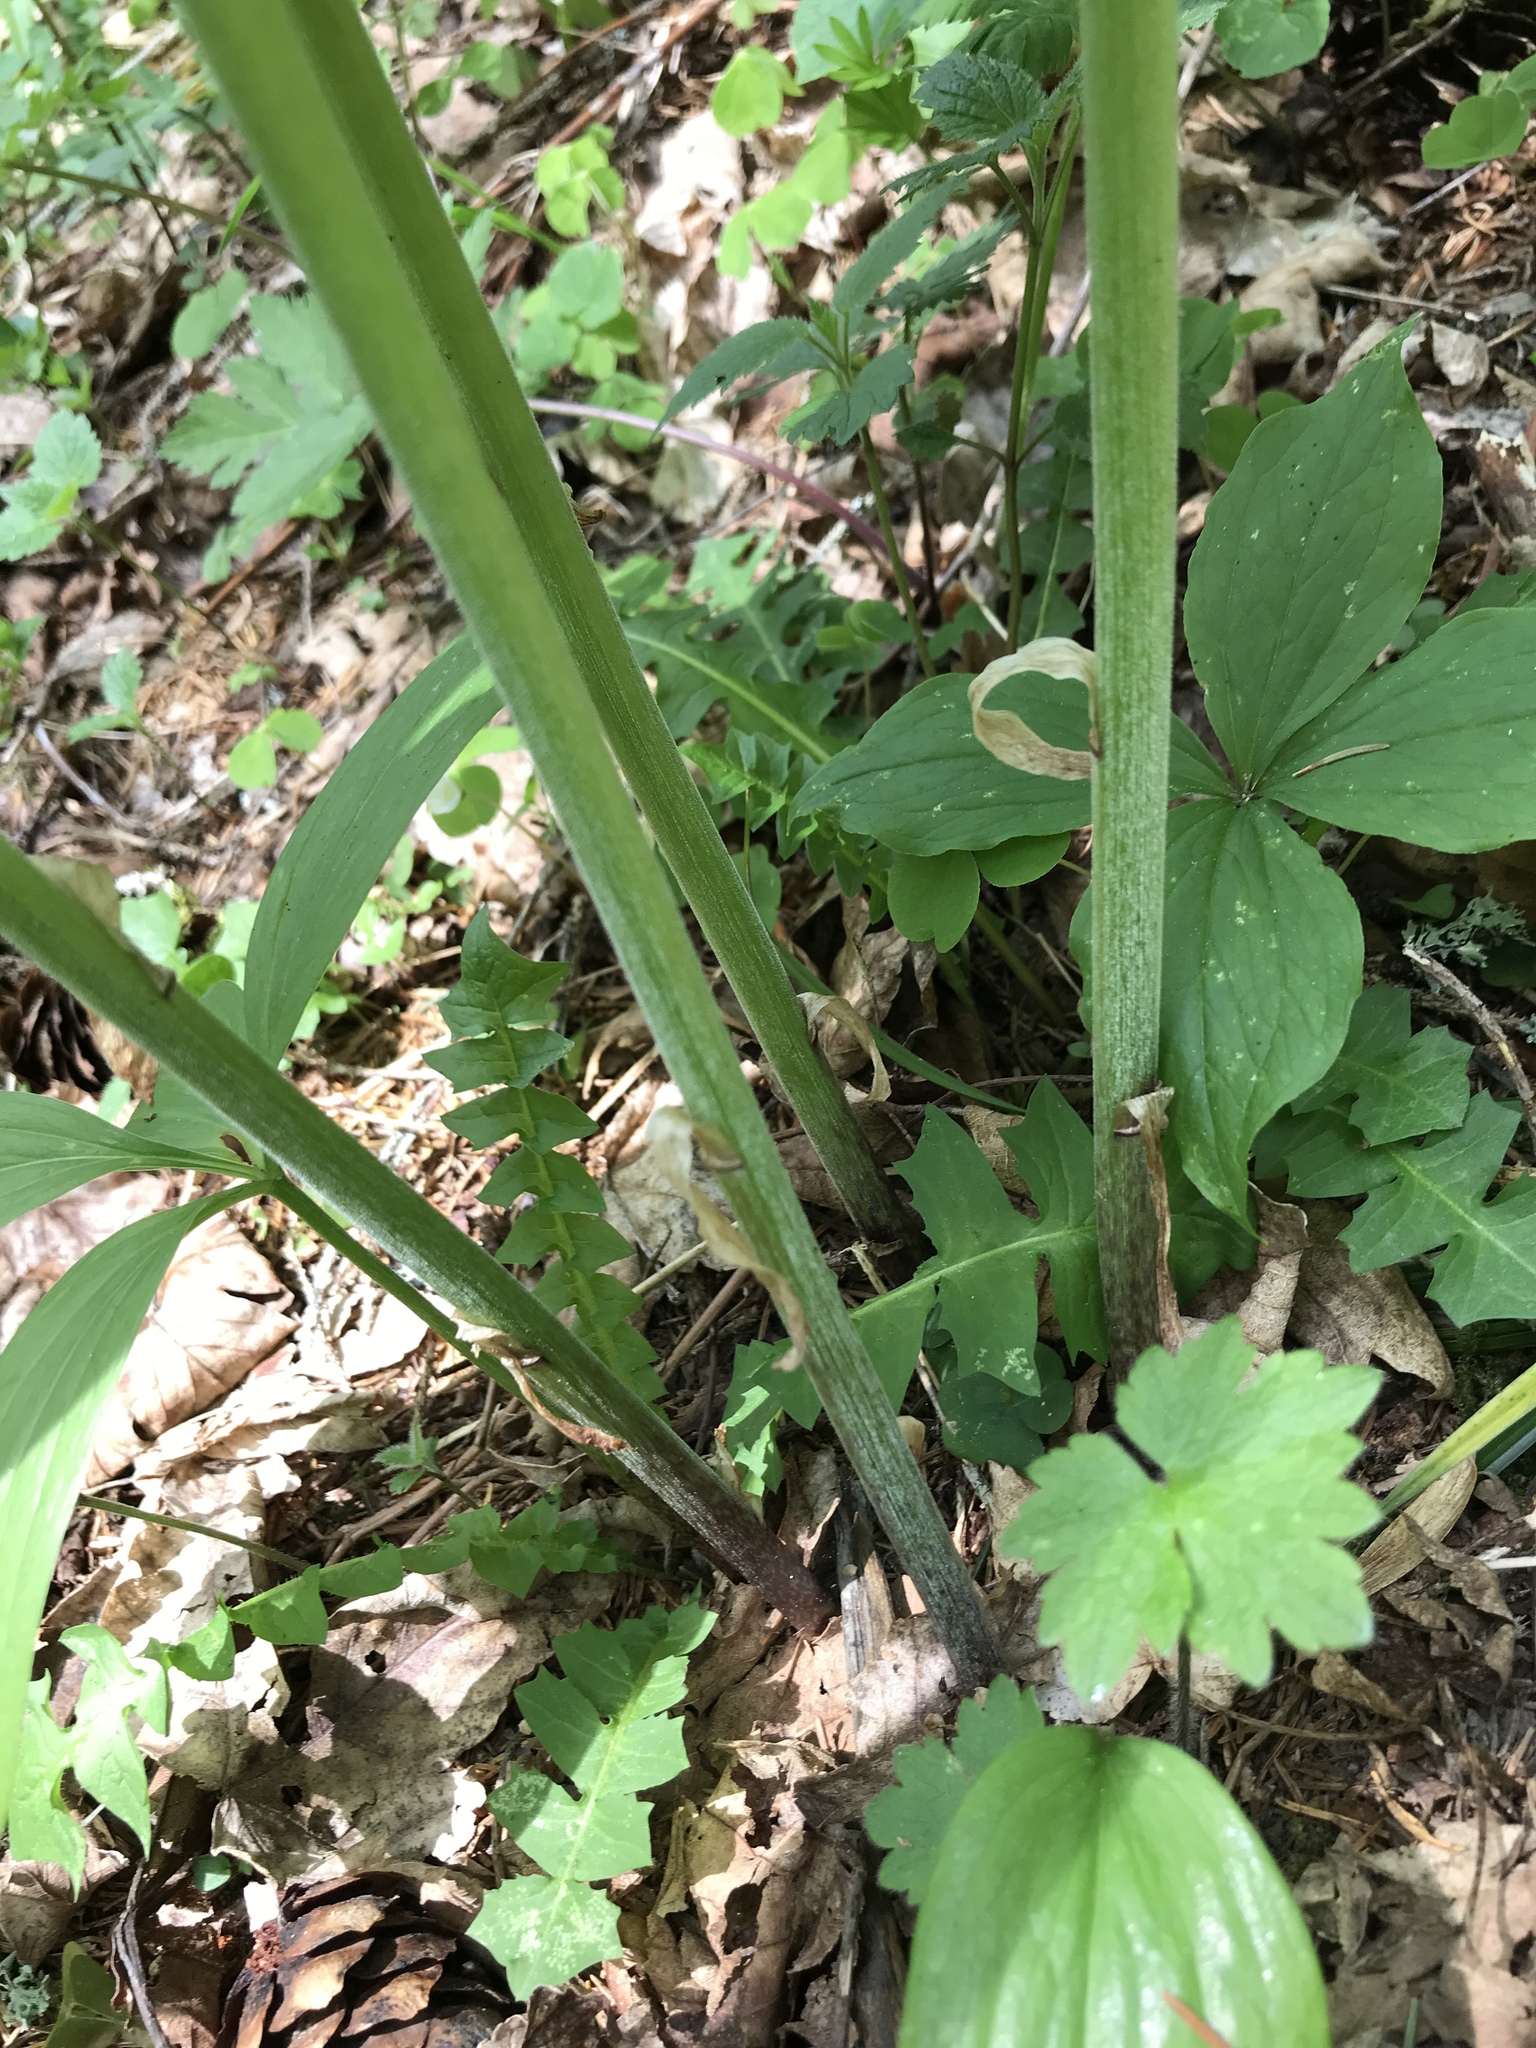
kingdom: Plantae
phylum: Tracheophyta
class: Liliopsida
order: Liliales
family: Liliaceae
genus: Lilium
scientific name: Lilium martagon
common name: Martagon lily
